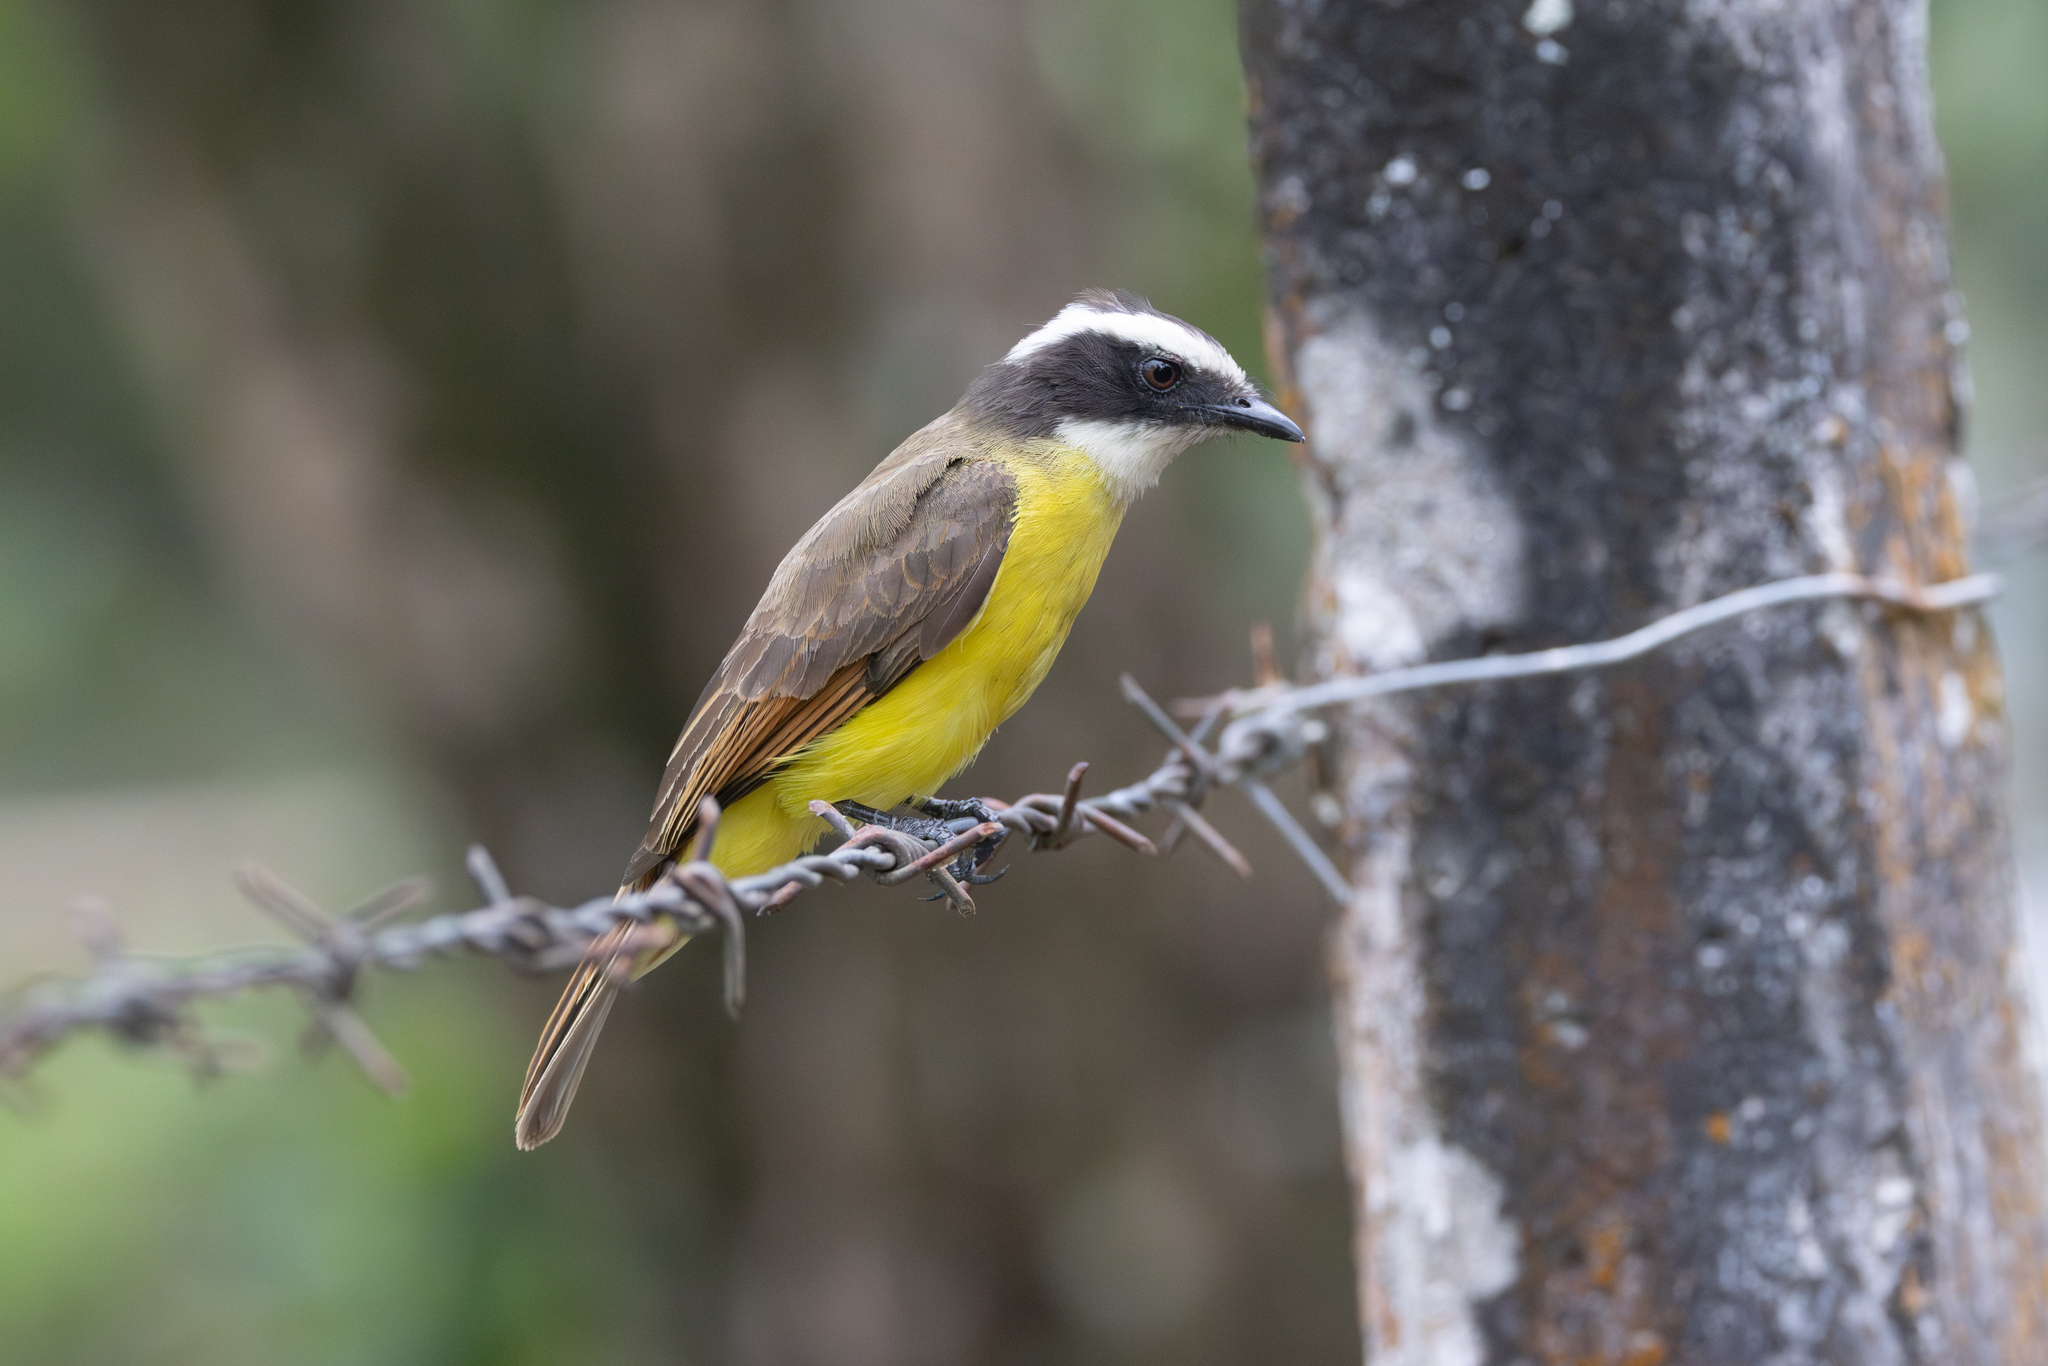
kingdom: Animalia
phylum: Chordata
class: Aves
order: Passeriformes
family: Tyrannidae
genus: Myiozetetes
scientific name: Myiozetetes cayanensis
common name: Rusty-margined flycatcher
